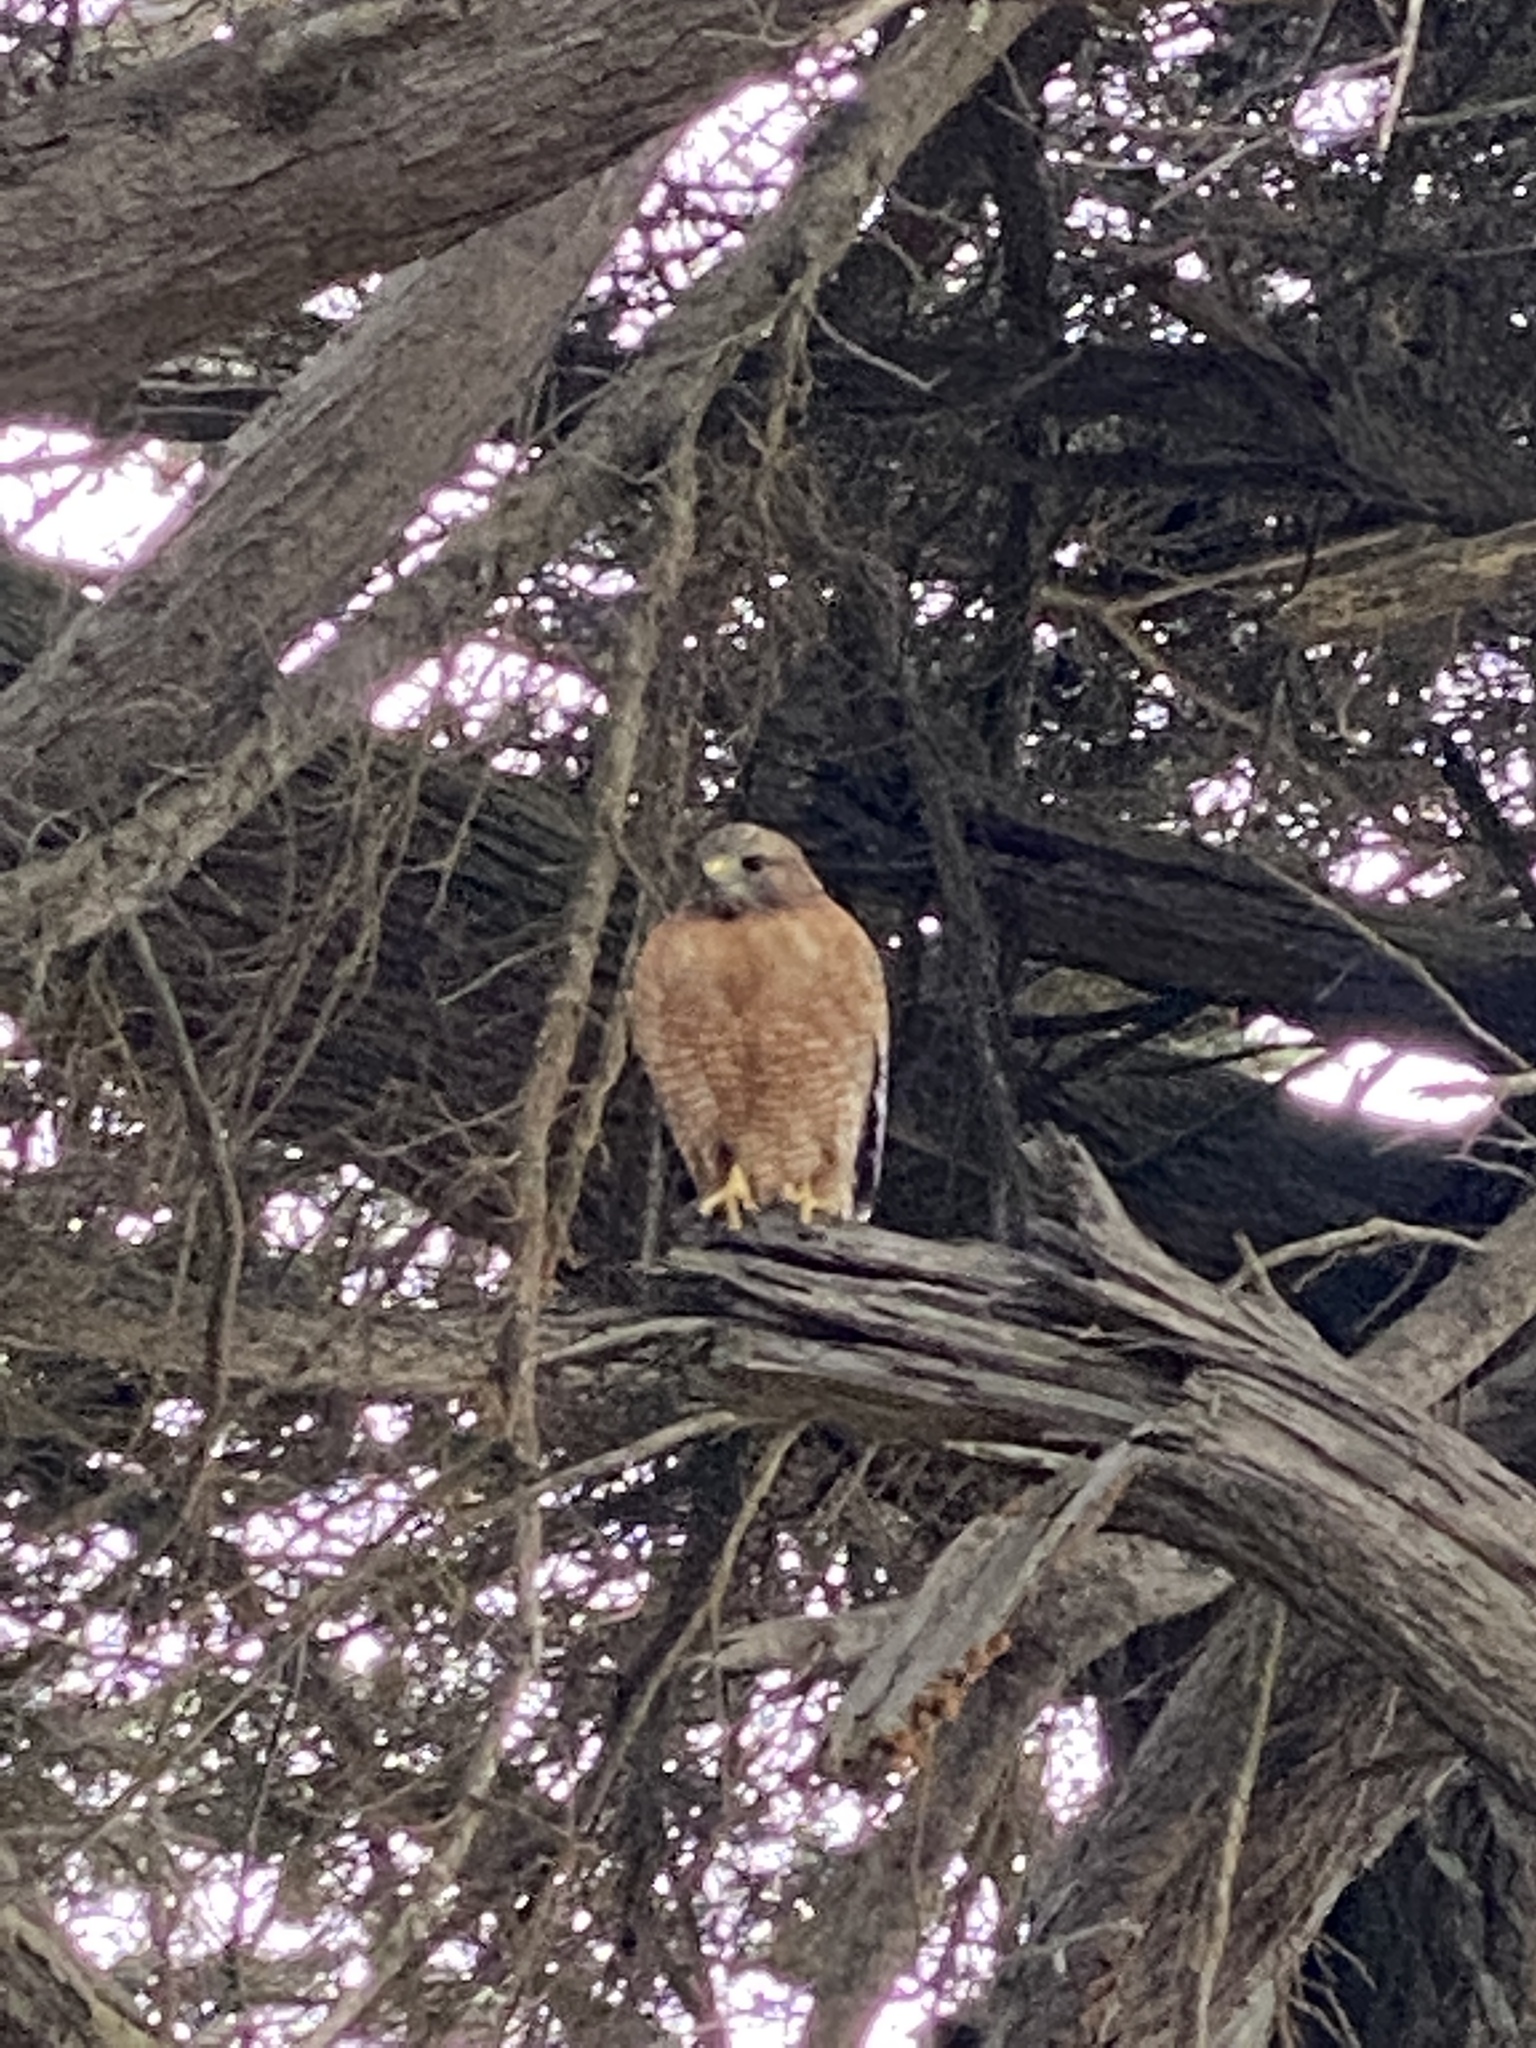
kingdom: Animalia
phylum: Chordata
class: Aves
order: Accipitriformes
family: Accipitridae
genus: Buteo
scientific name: Buteo lineatus
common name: Red-shouldered hawk
